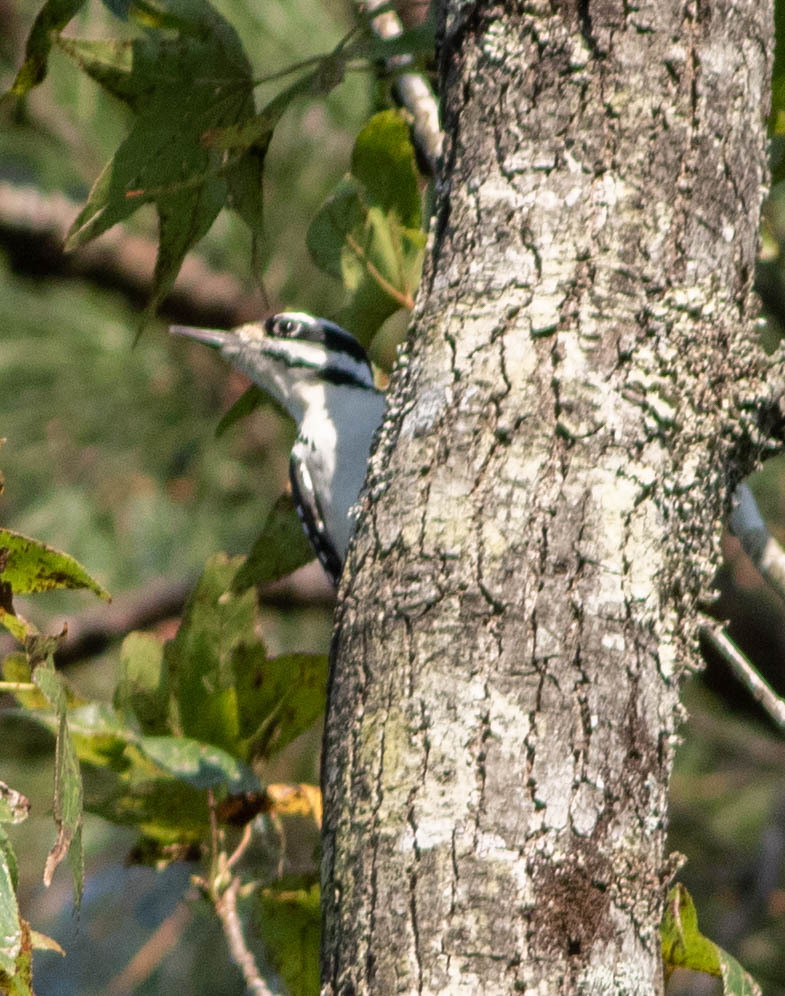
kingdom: Animalia
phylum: Chordata
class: Aves
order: Piciformes
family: Picidae
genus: Leuconotopicus
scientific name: Leuconotopicus villosus
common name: Hairy woodpecker
